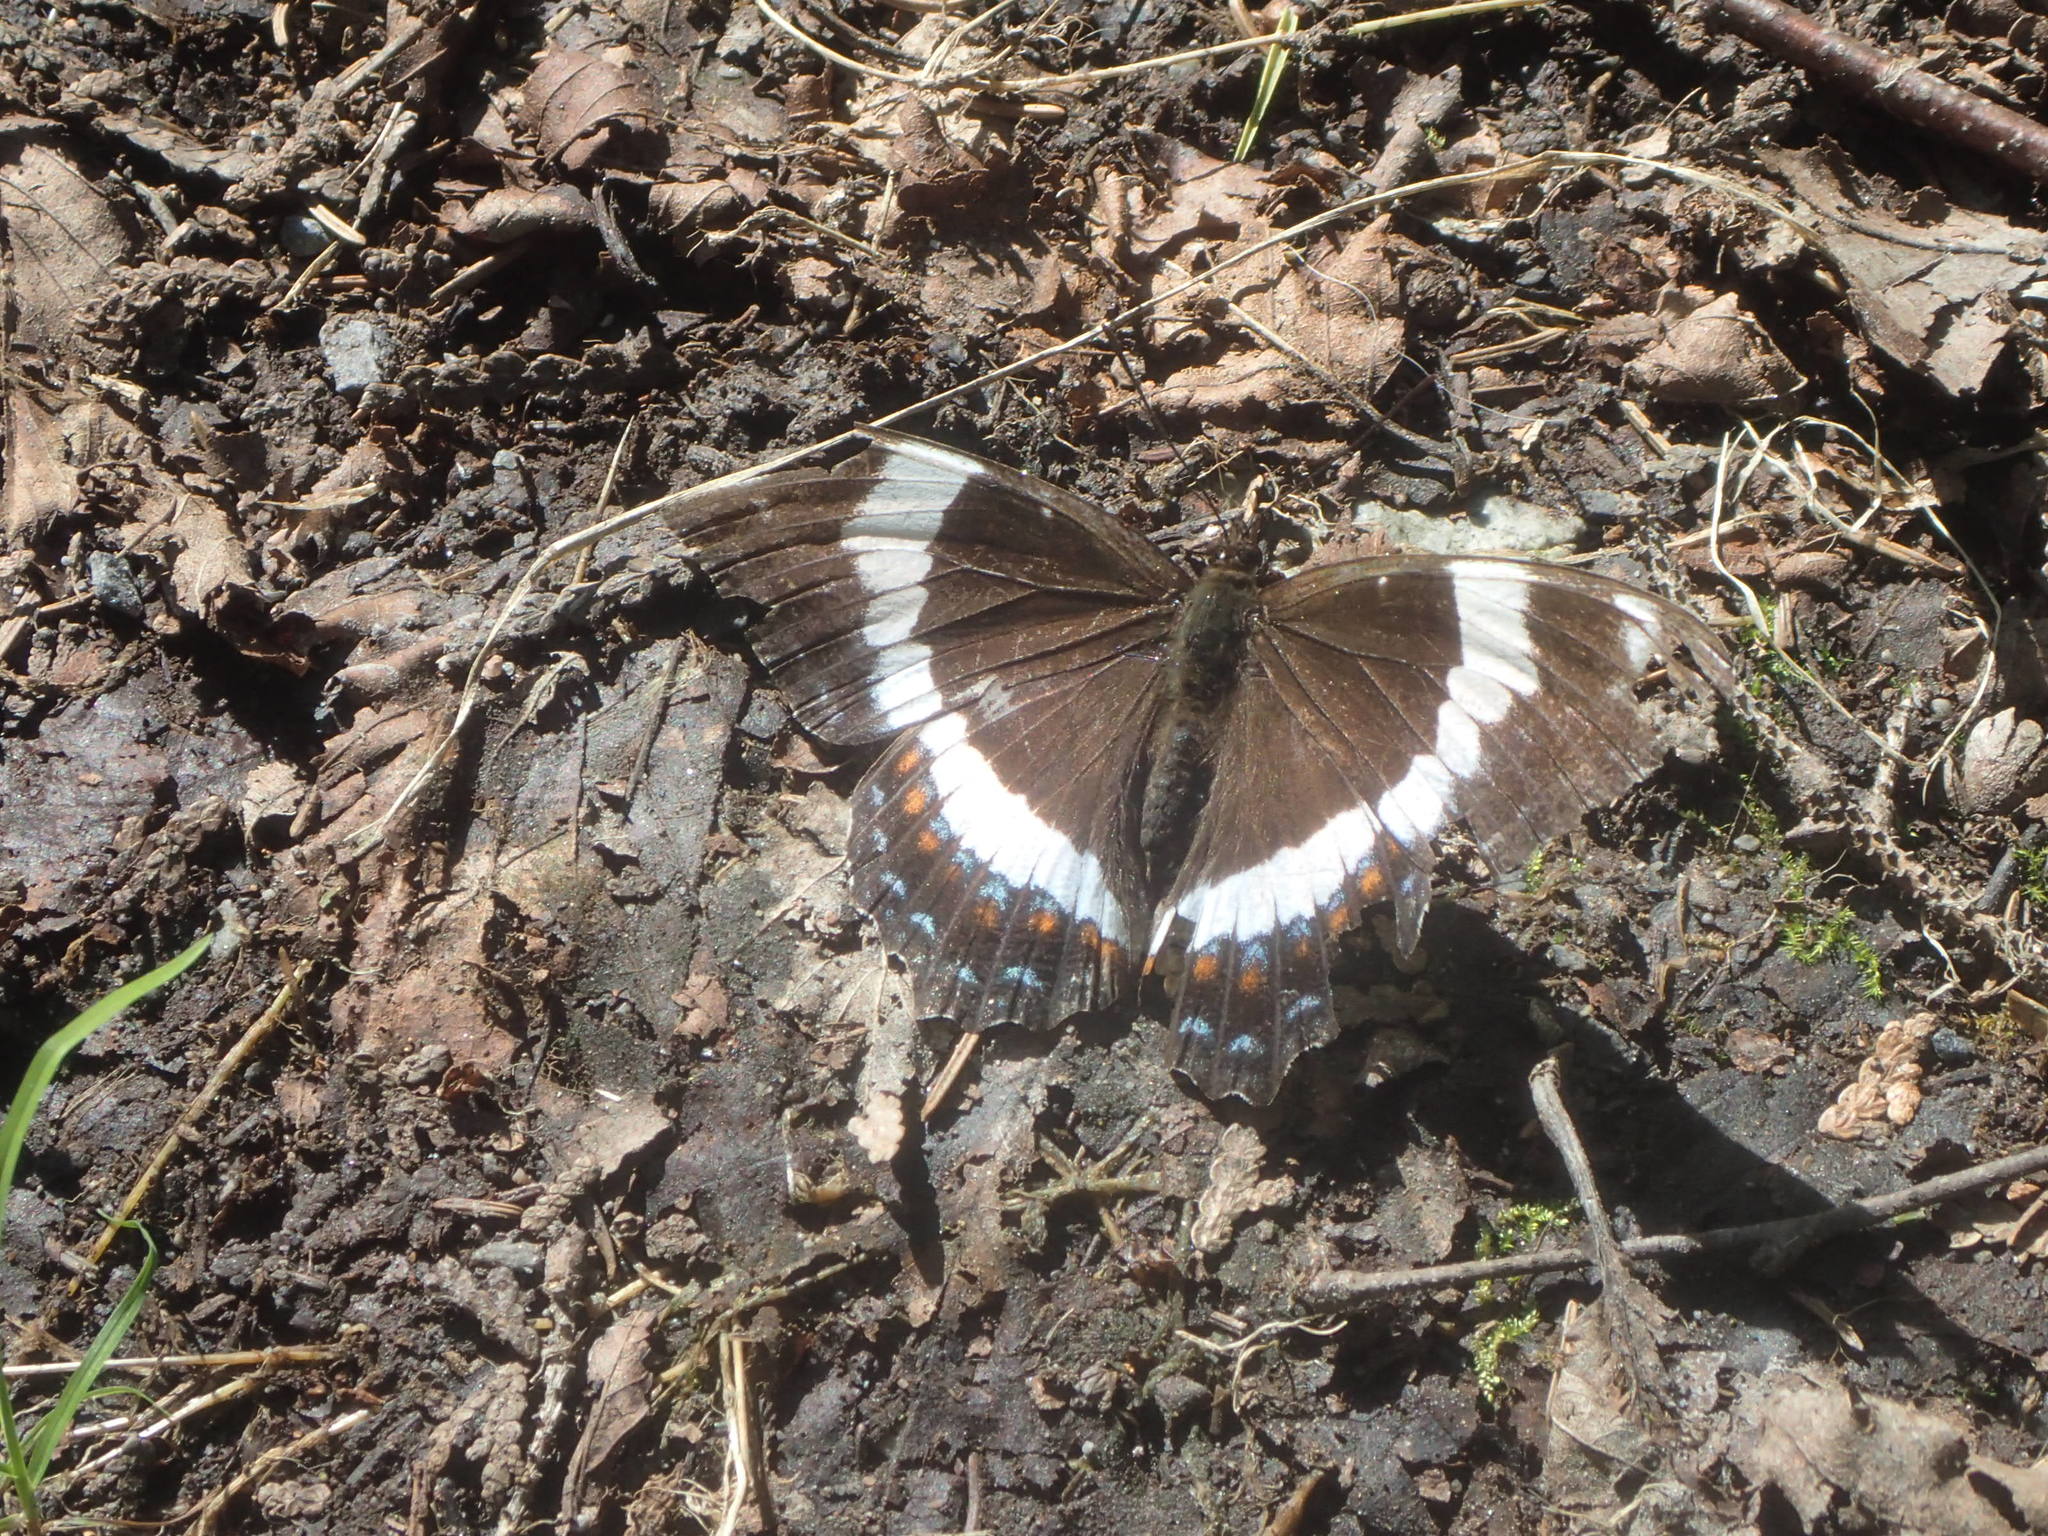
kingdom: Animalia
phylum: Arthropoda
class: Insecta
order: Lepidoptera
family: Nymphalidae
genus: Limenitis
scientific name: Limenitis arthemis
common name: Red-spotted admiral
